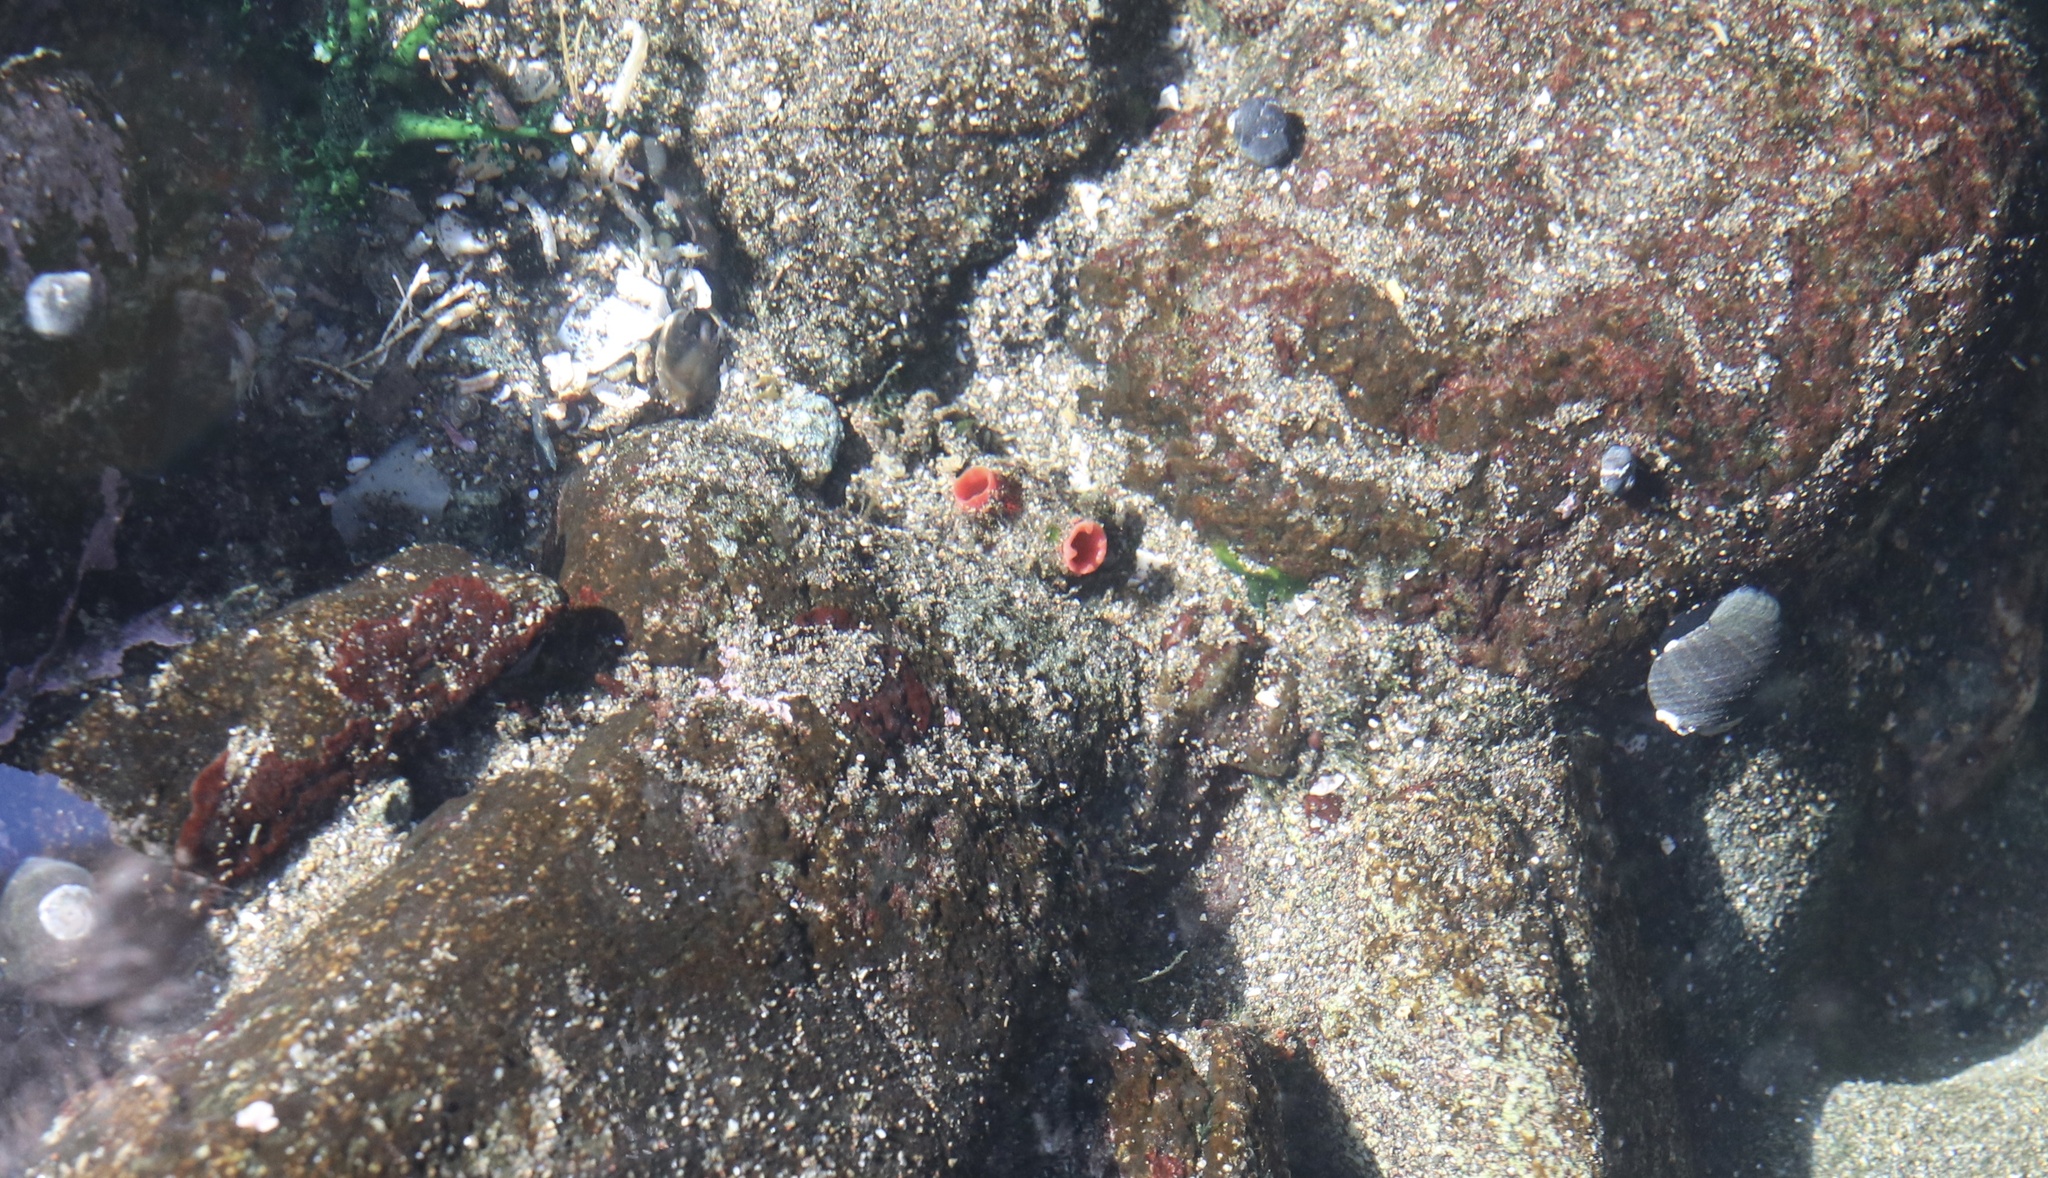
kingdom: Animalia
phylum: Chordata
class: Ascidiacea
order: Stolidobranchia
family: Pyuridae
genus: Pyura
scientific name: Pyura chilensis
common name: Red sea squirt
